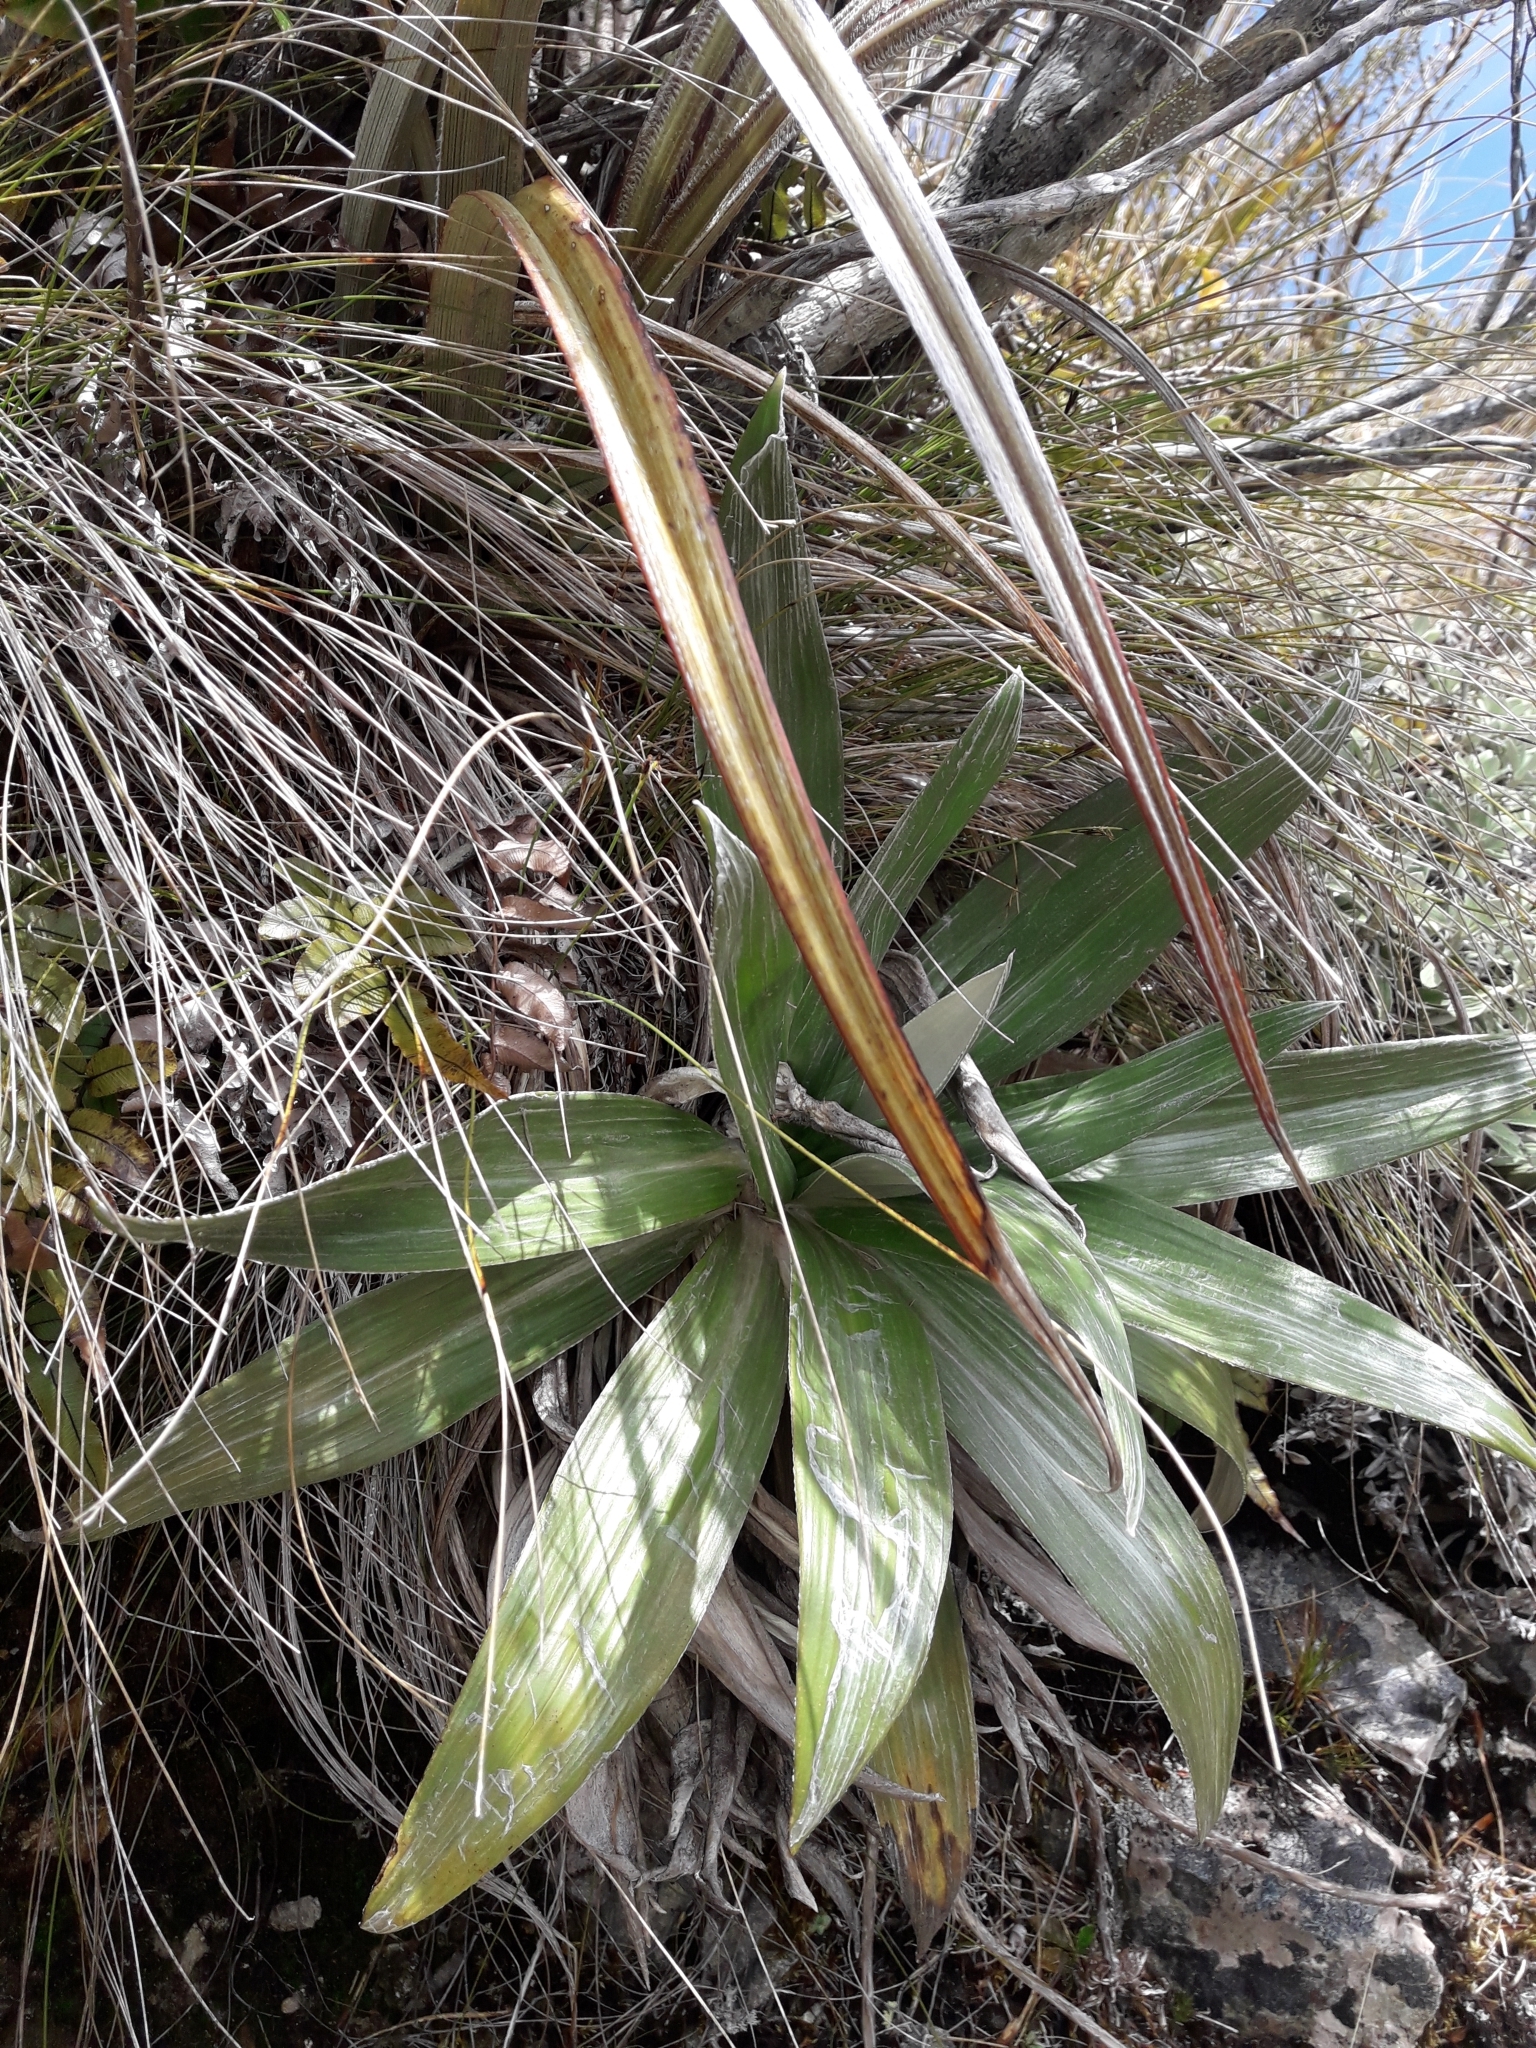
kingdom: Plantae
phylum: Tracheophyta
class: Magnoliopsida
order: Asterales
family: Asteraceae
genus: Celmisia
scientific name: Celmisia semicordata
